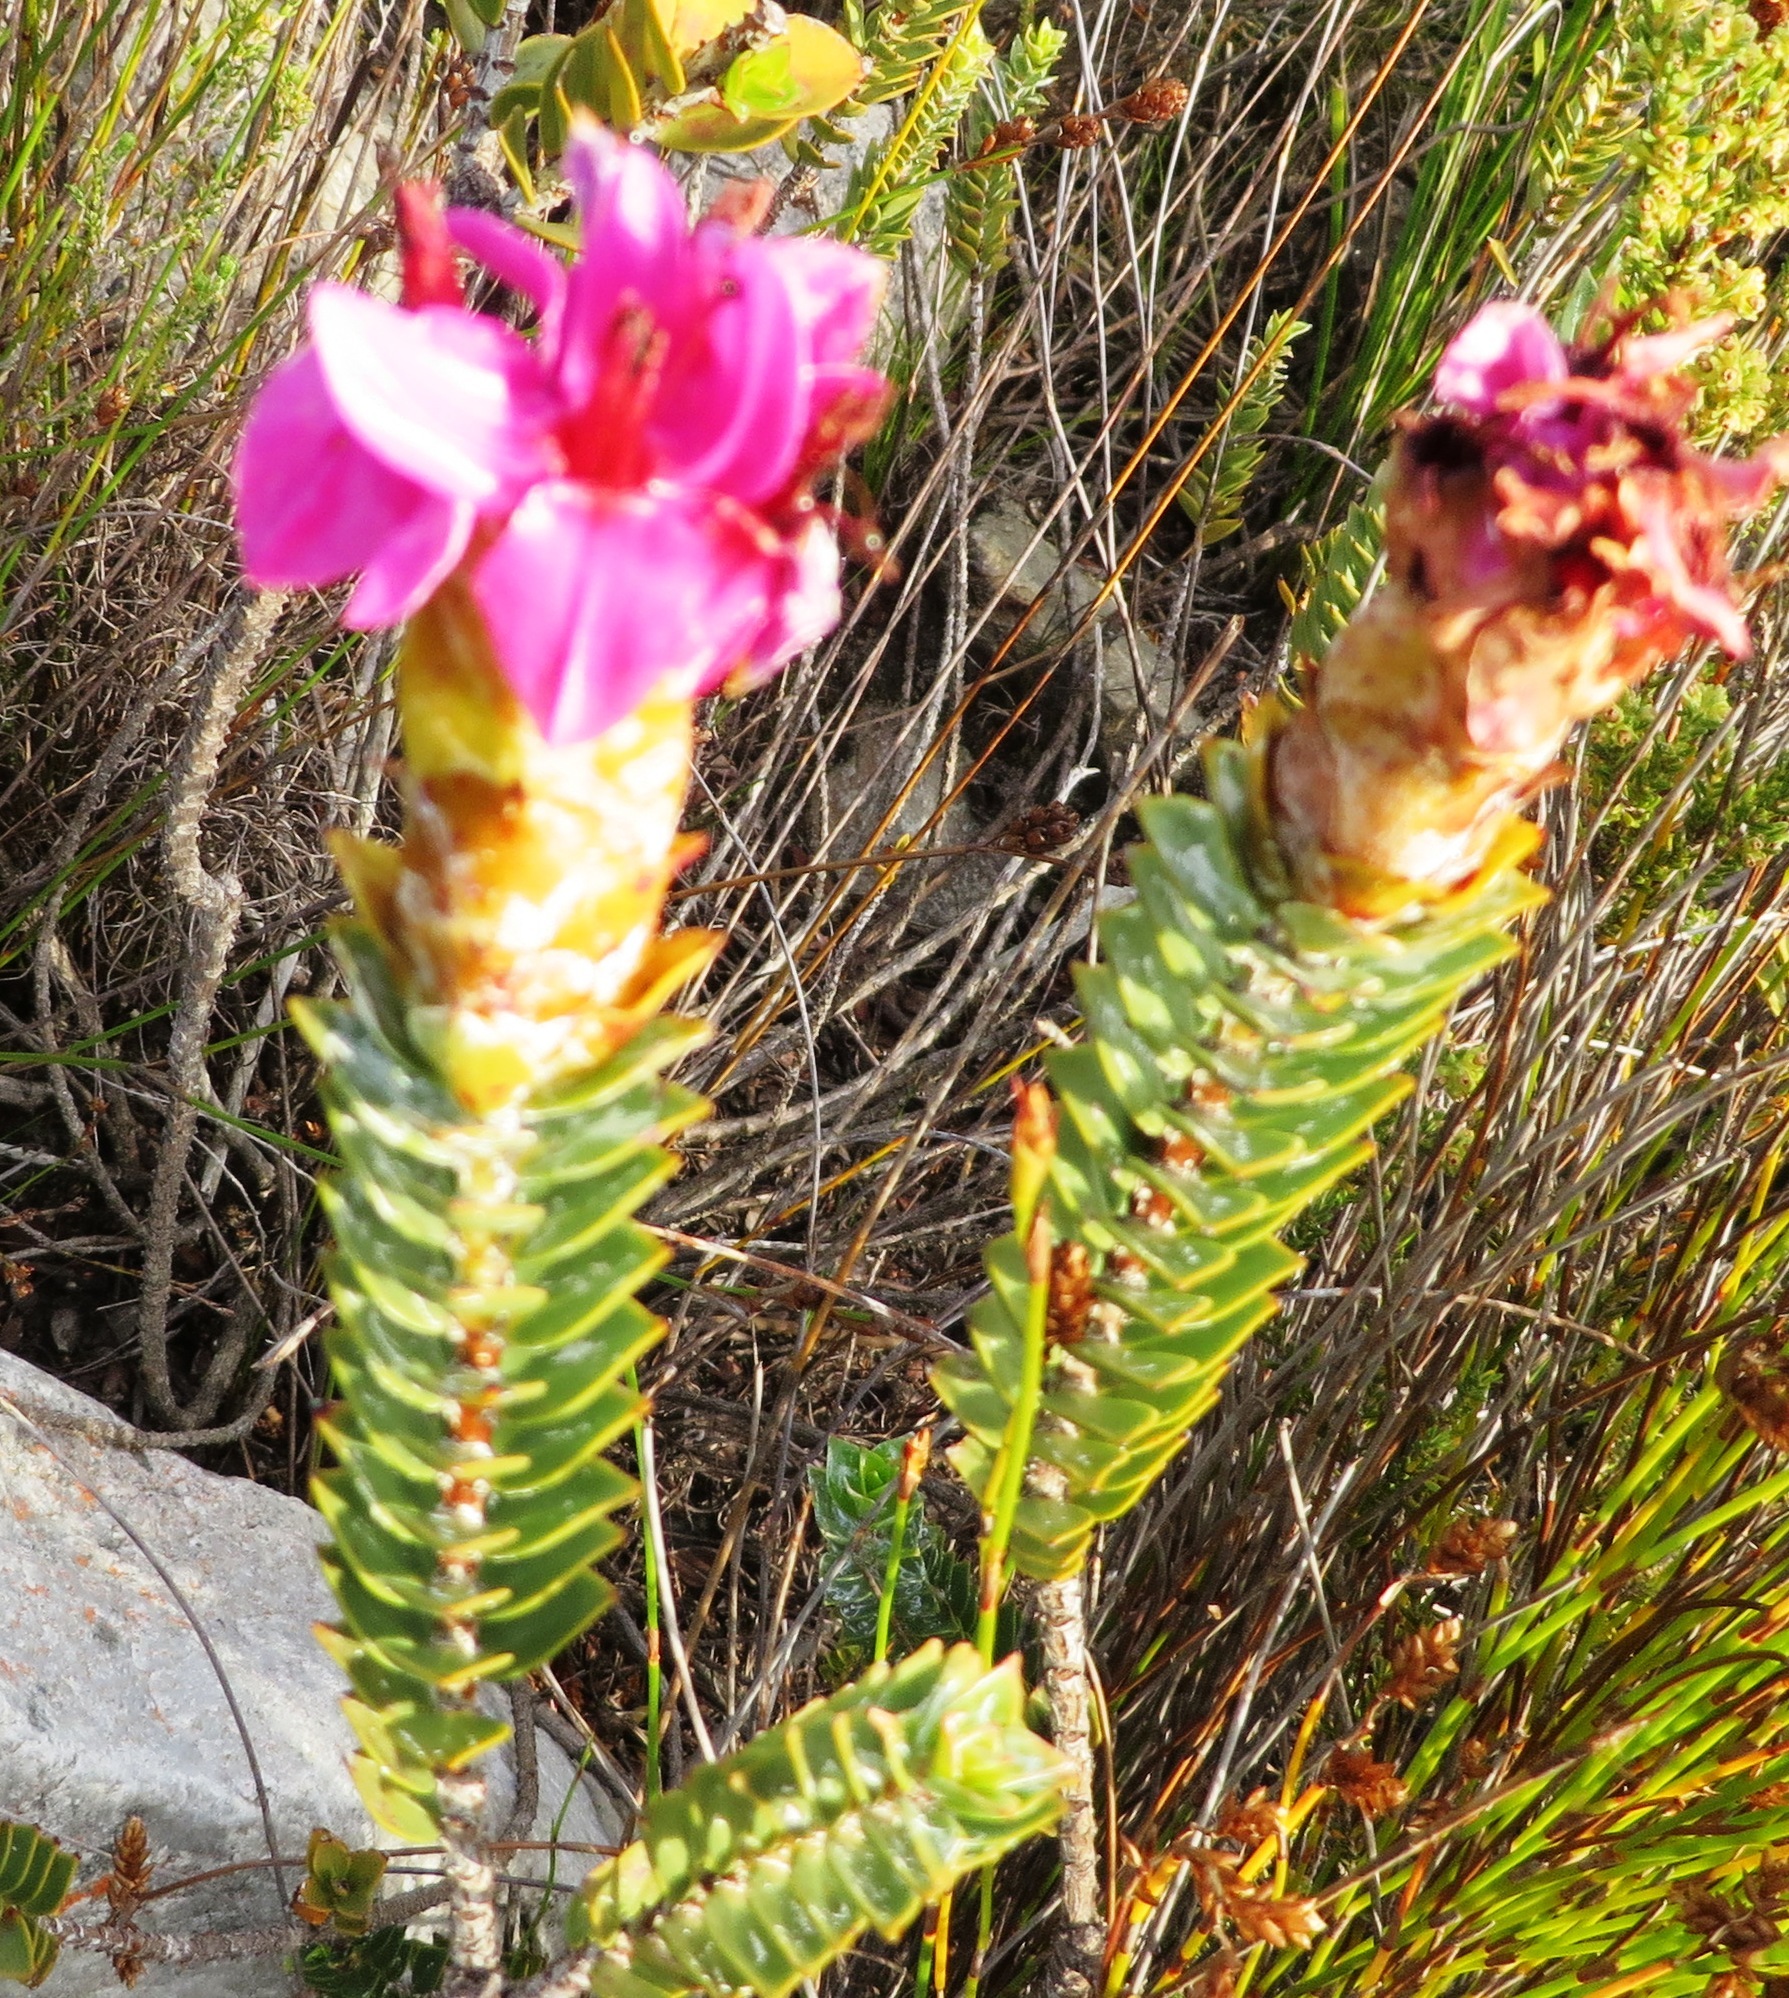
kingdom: Plantae
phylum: Tracheophyta
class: Magnoliopsida
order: Myrtales
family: Penaeaceae
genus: Saltera
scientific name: Saltera sarcocolla
